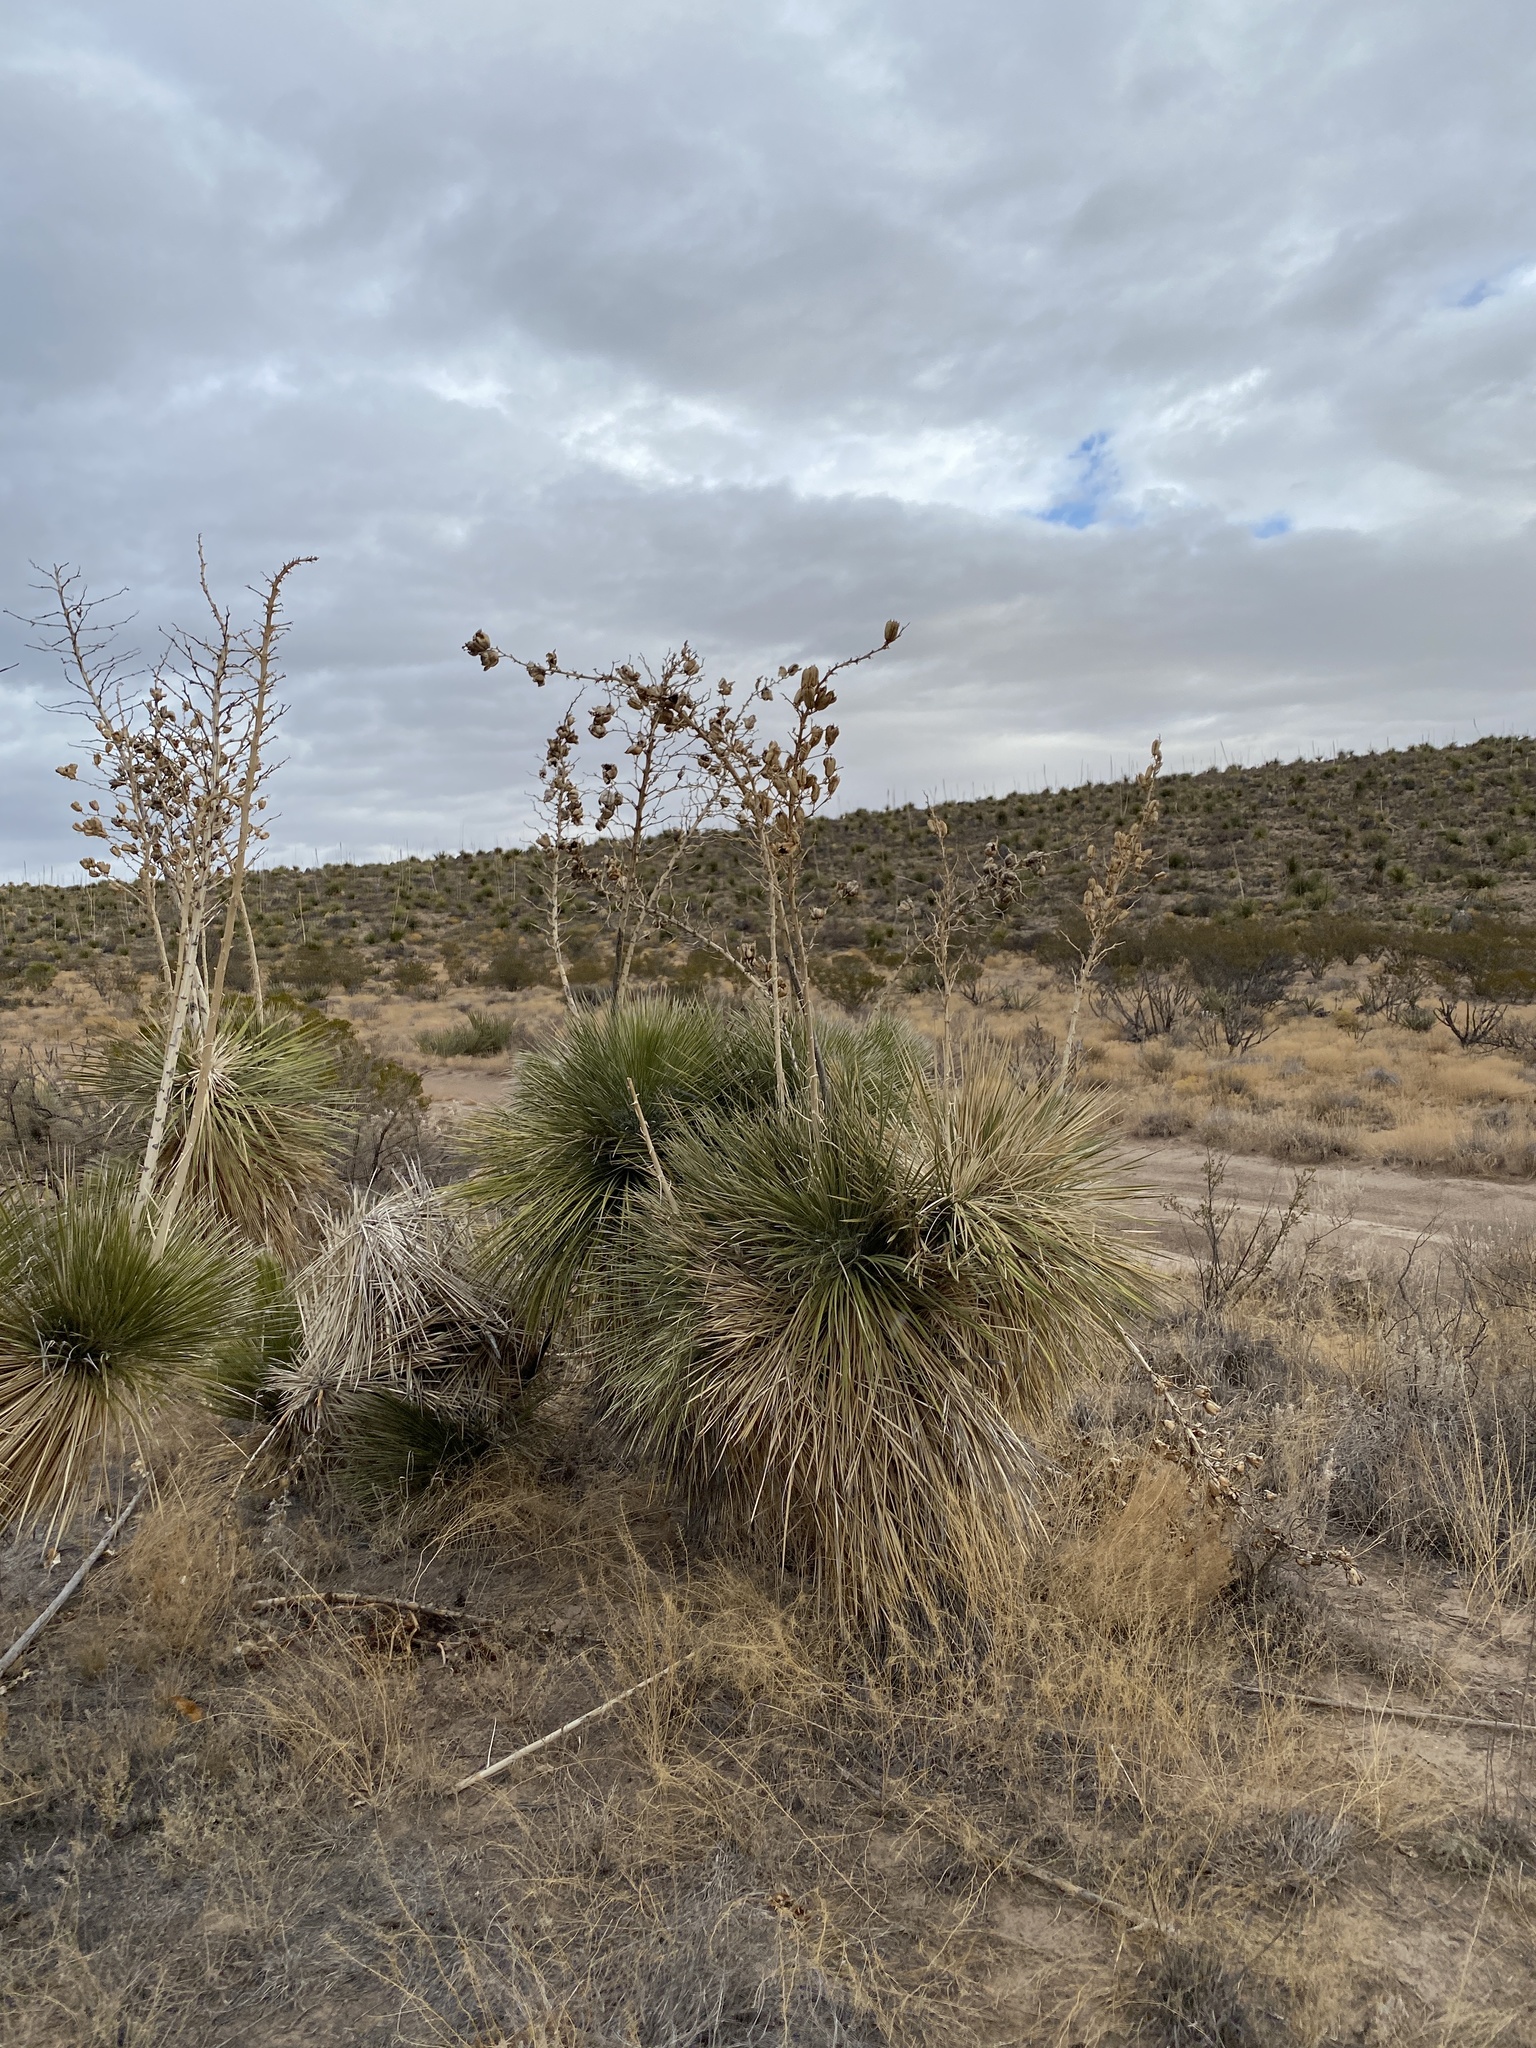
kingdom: Plantae
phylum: Tracheophyta
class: Liliopsida
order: Asparagales
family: Asparagaceae
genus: Yucca
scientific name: Yucca elata
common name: Palmella
